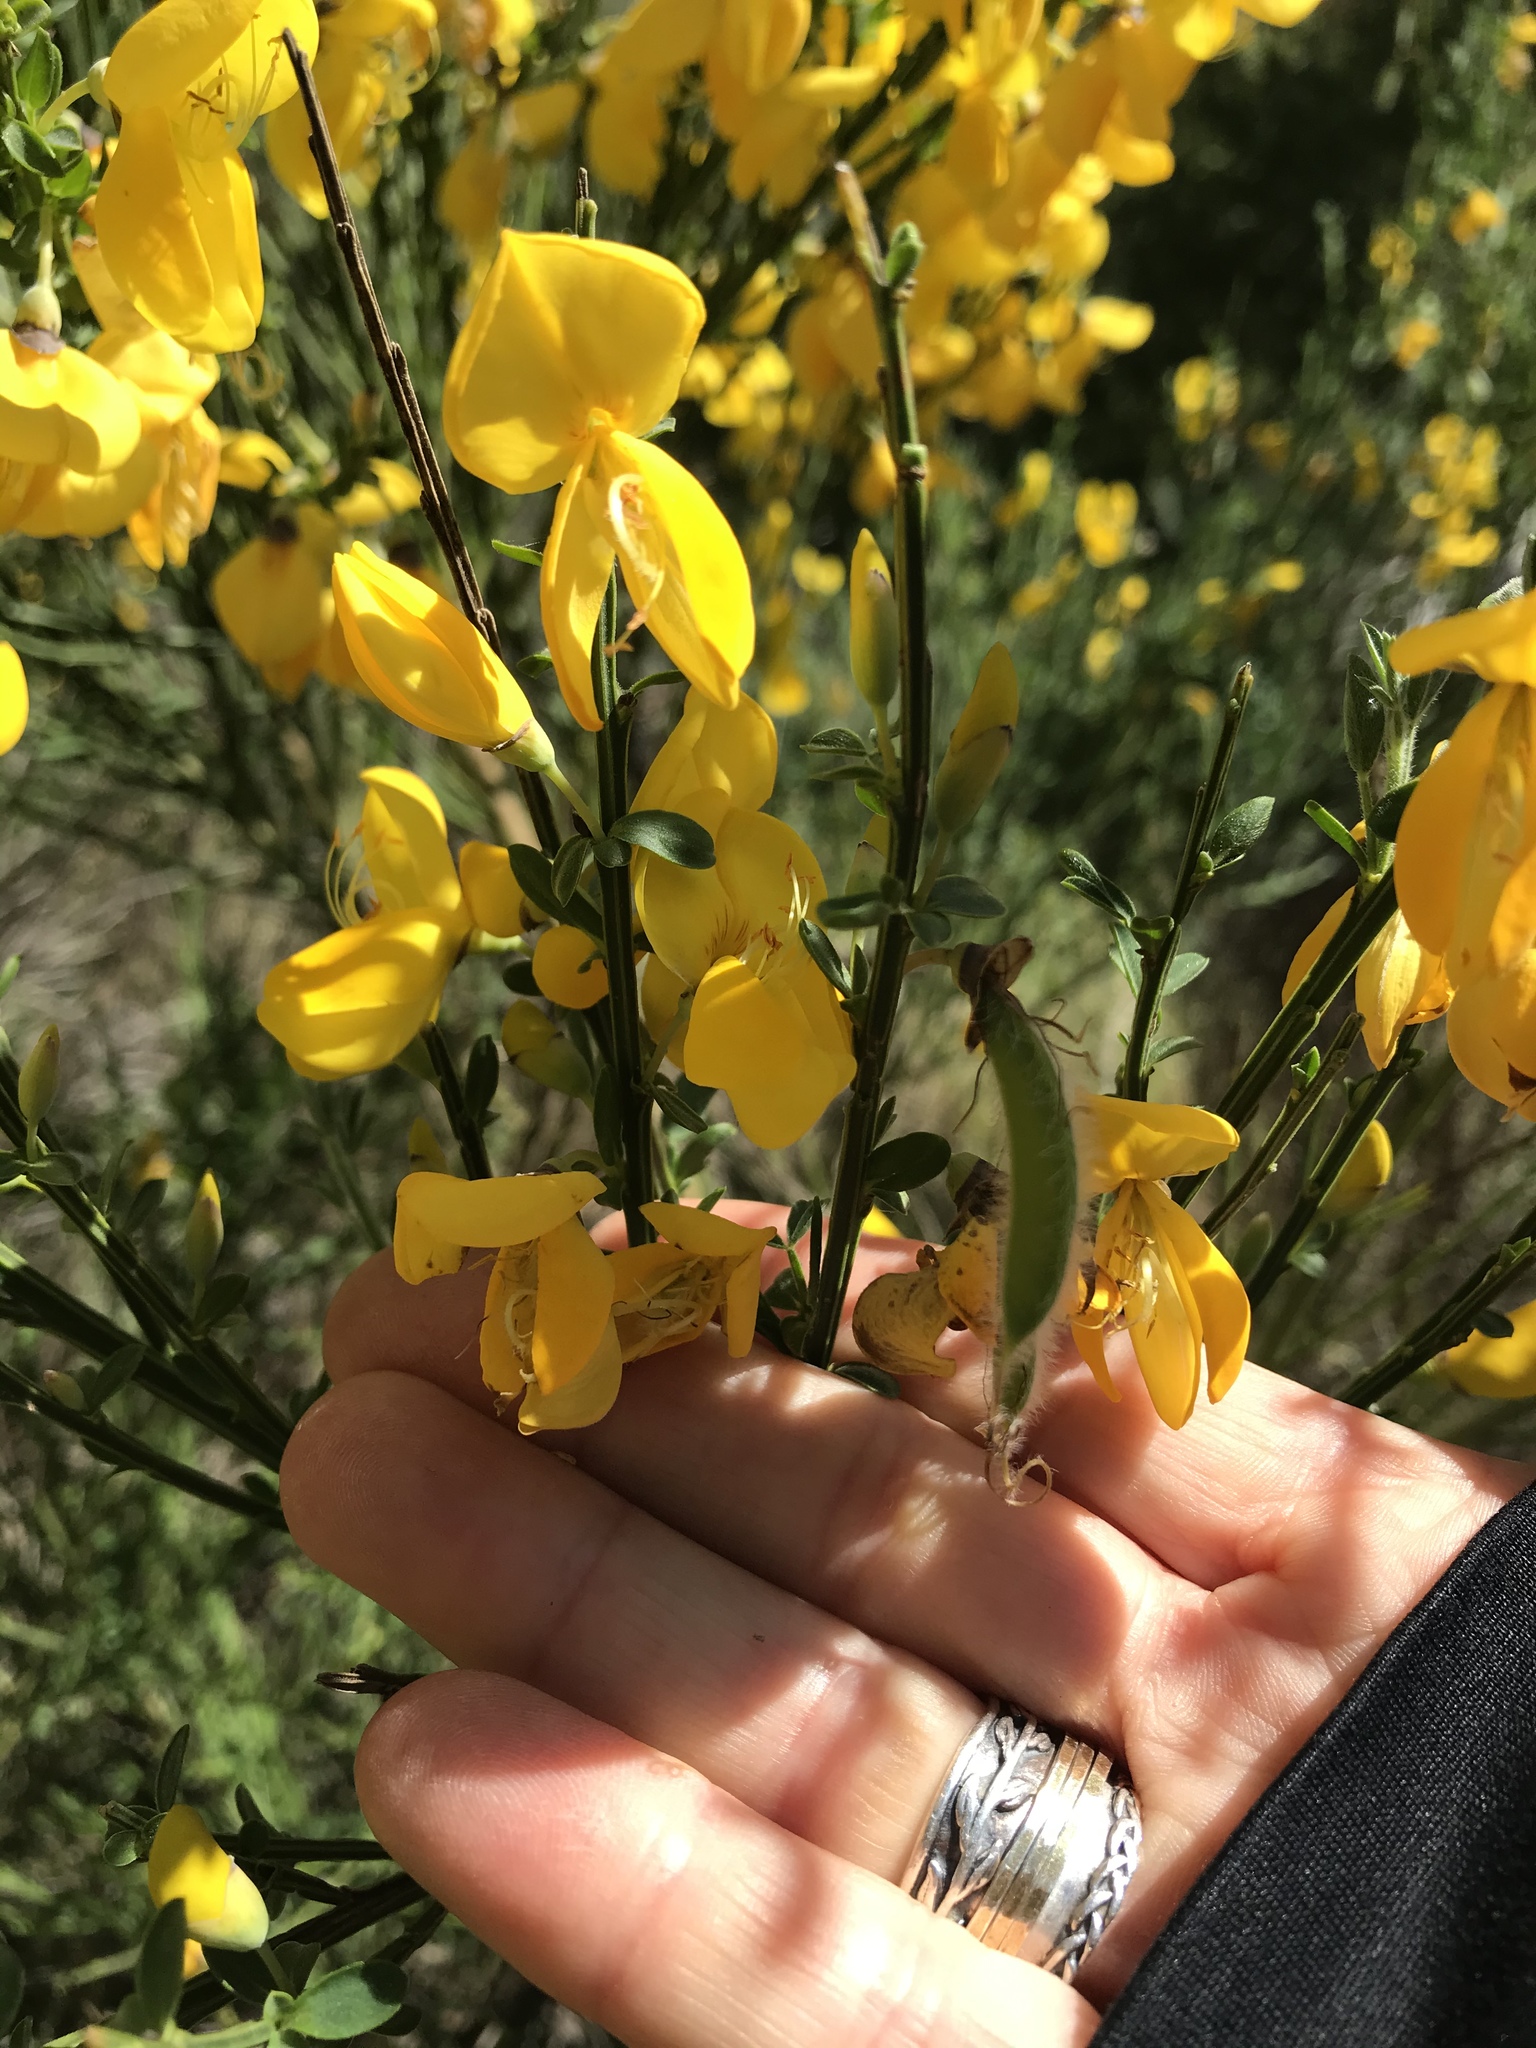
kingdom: Plantae
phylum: Tracheophyta
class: Magnoliopsida
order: Fabales
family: Fabaceae
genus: Cytisus
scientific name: Cytisus scoparius
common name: Scotch broom
